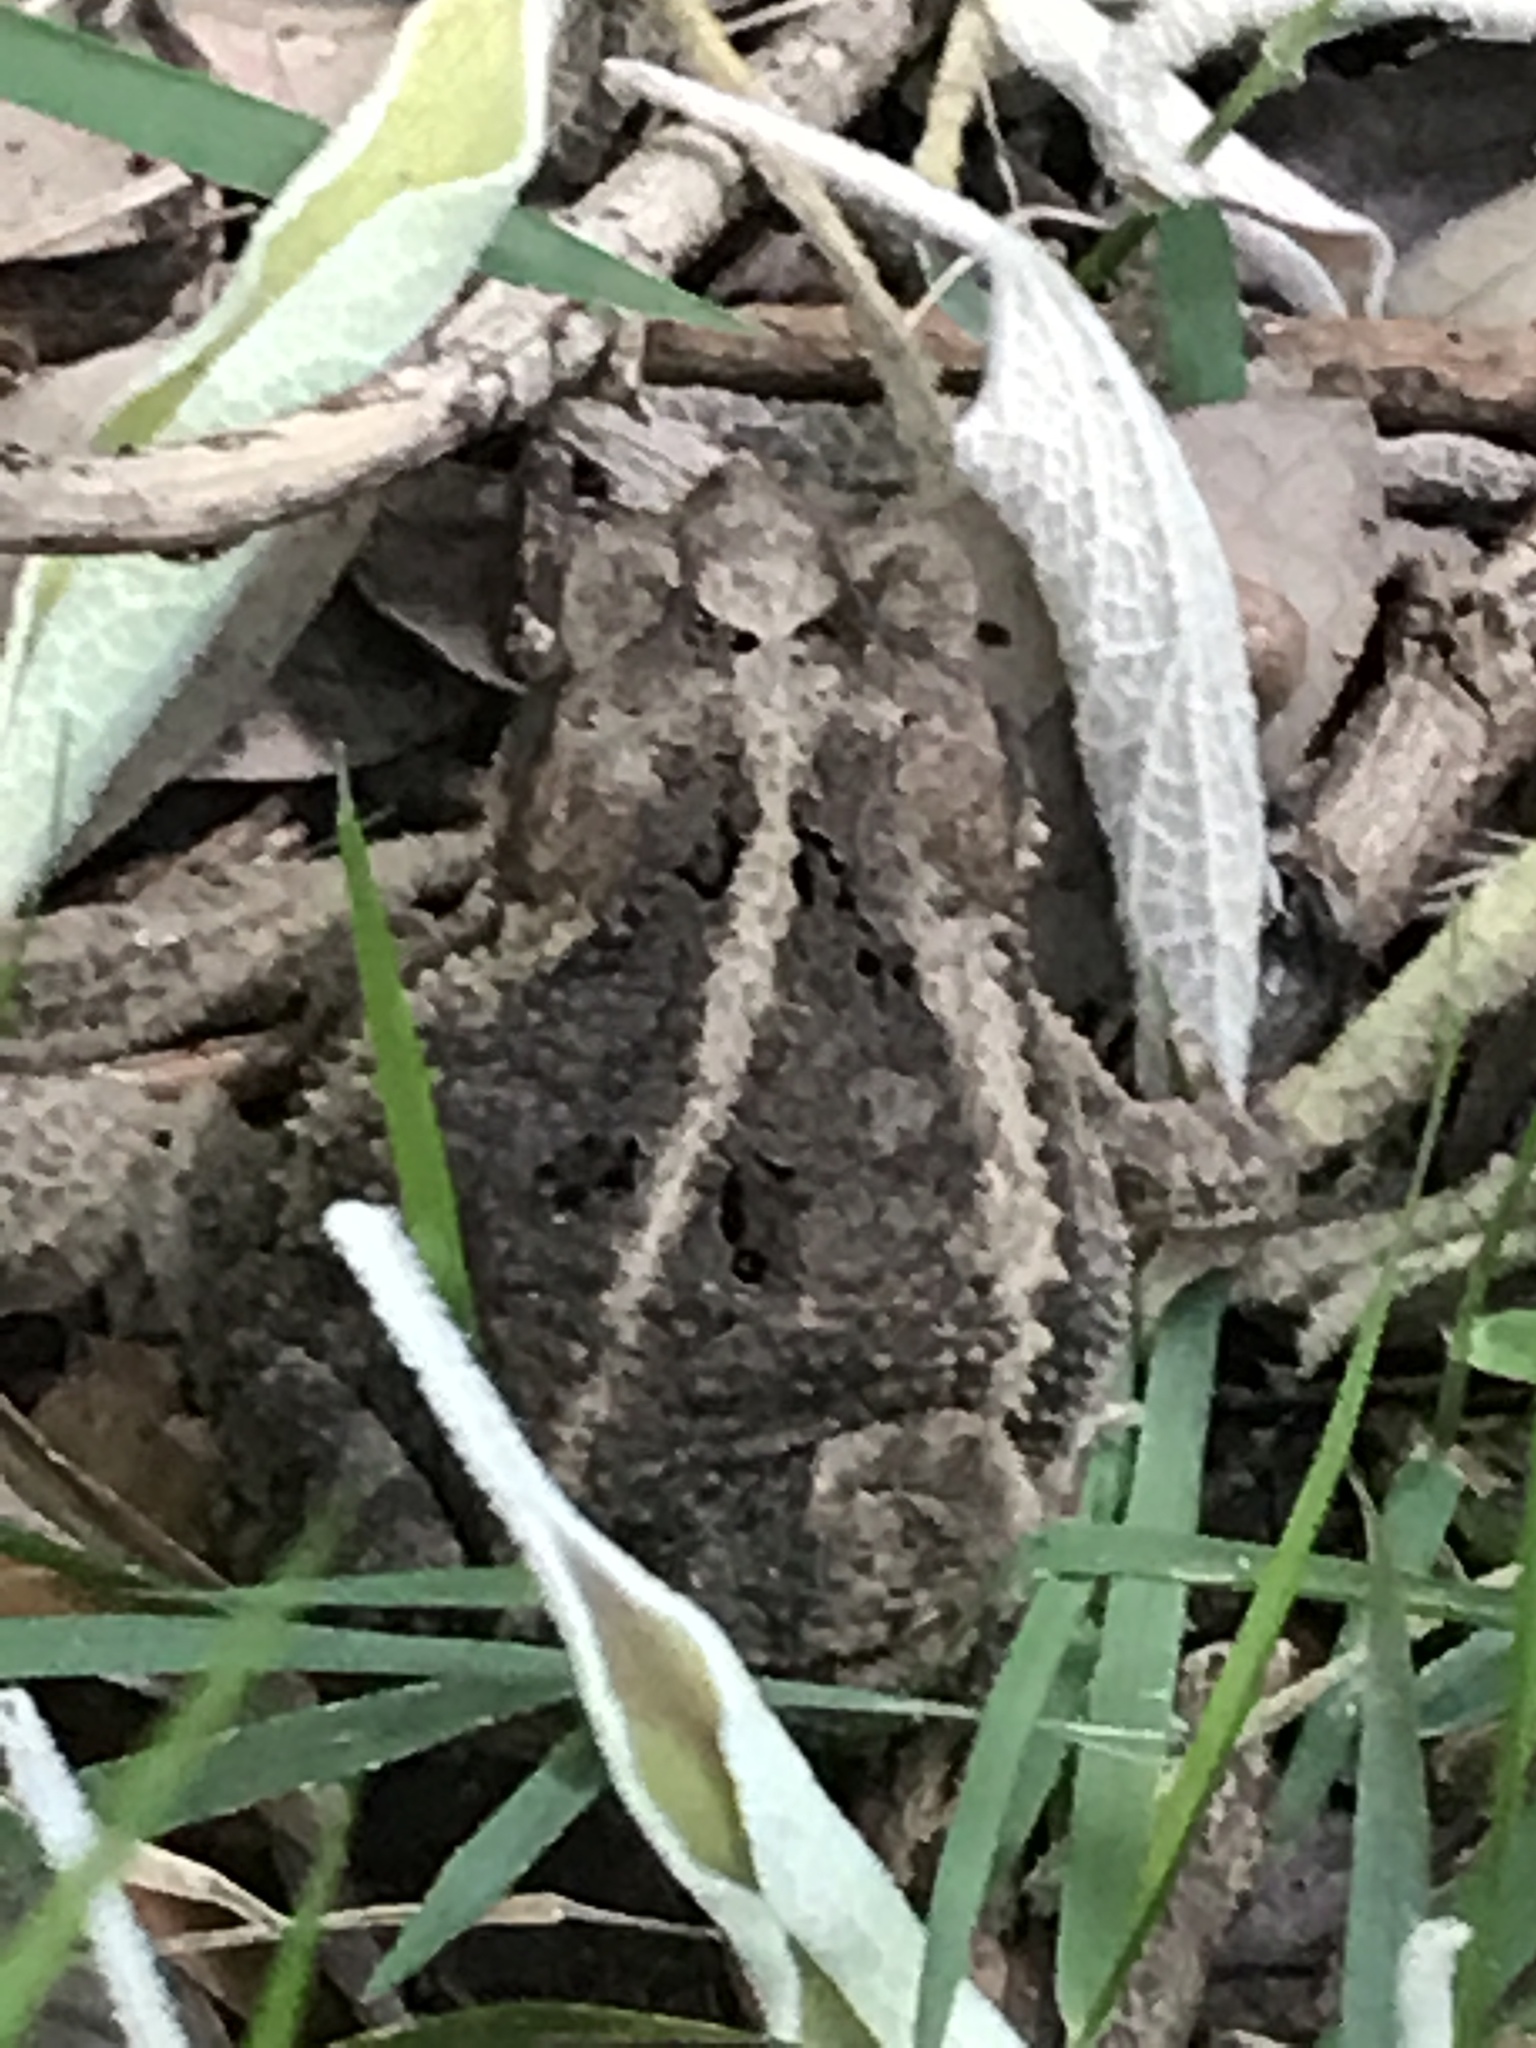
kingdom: Animalia
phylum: Chordata
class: Amphibia
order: Anura
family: Bufonidae
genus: Incilius
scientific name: Incilius nebulifer
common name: Gulf coast toad
